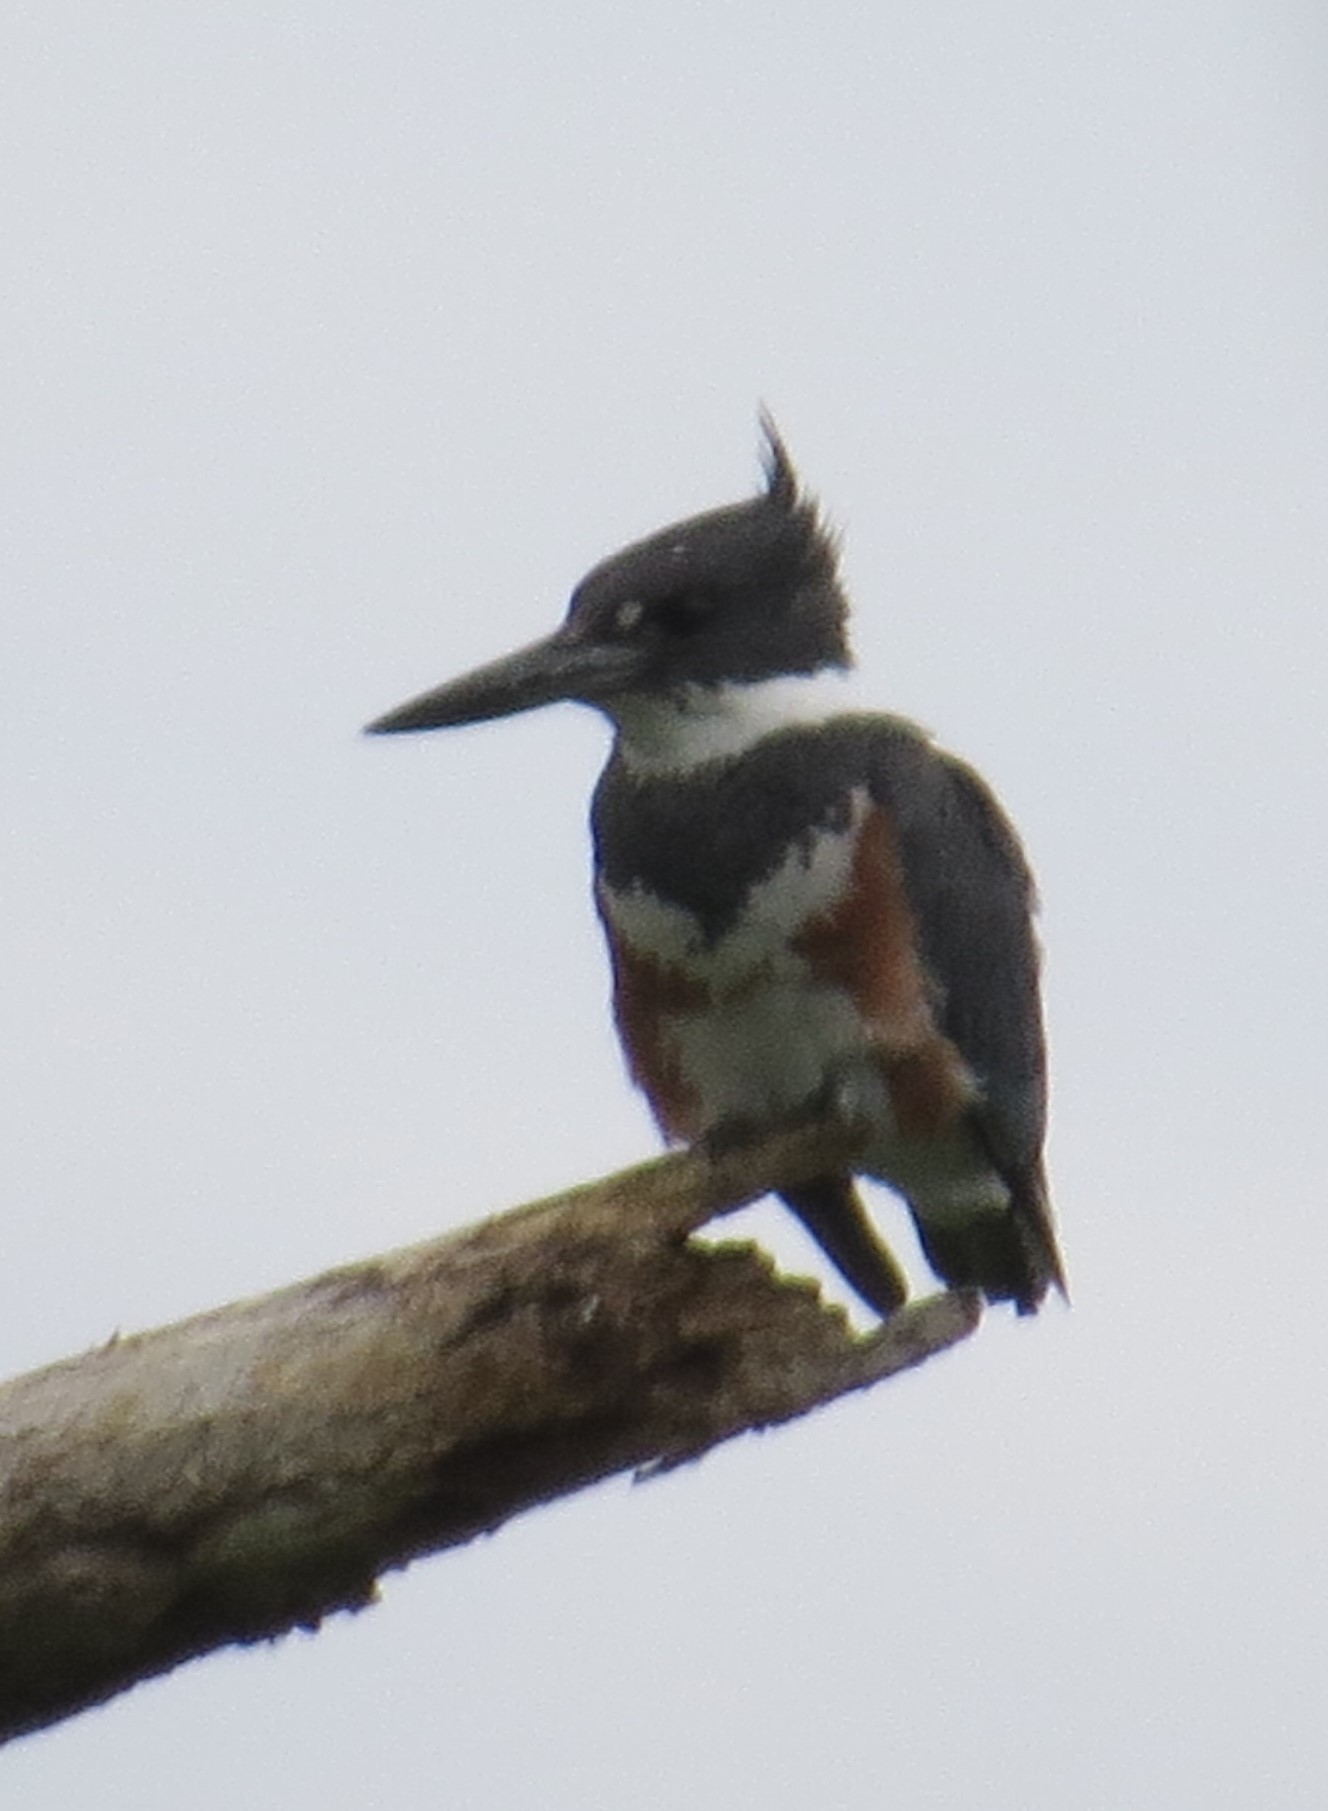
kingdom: Animalia
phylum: Chordata
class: Aves
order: Coraciiformes
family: Alcedinidae
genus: Megaceryle
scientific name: Megaceryle alcyon
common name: Belted kingfisher
